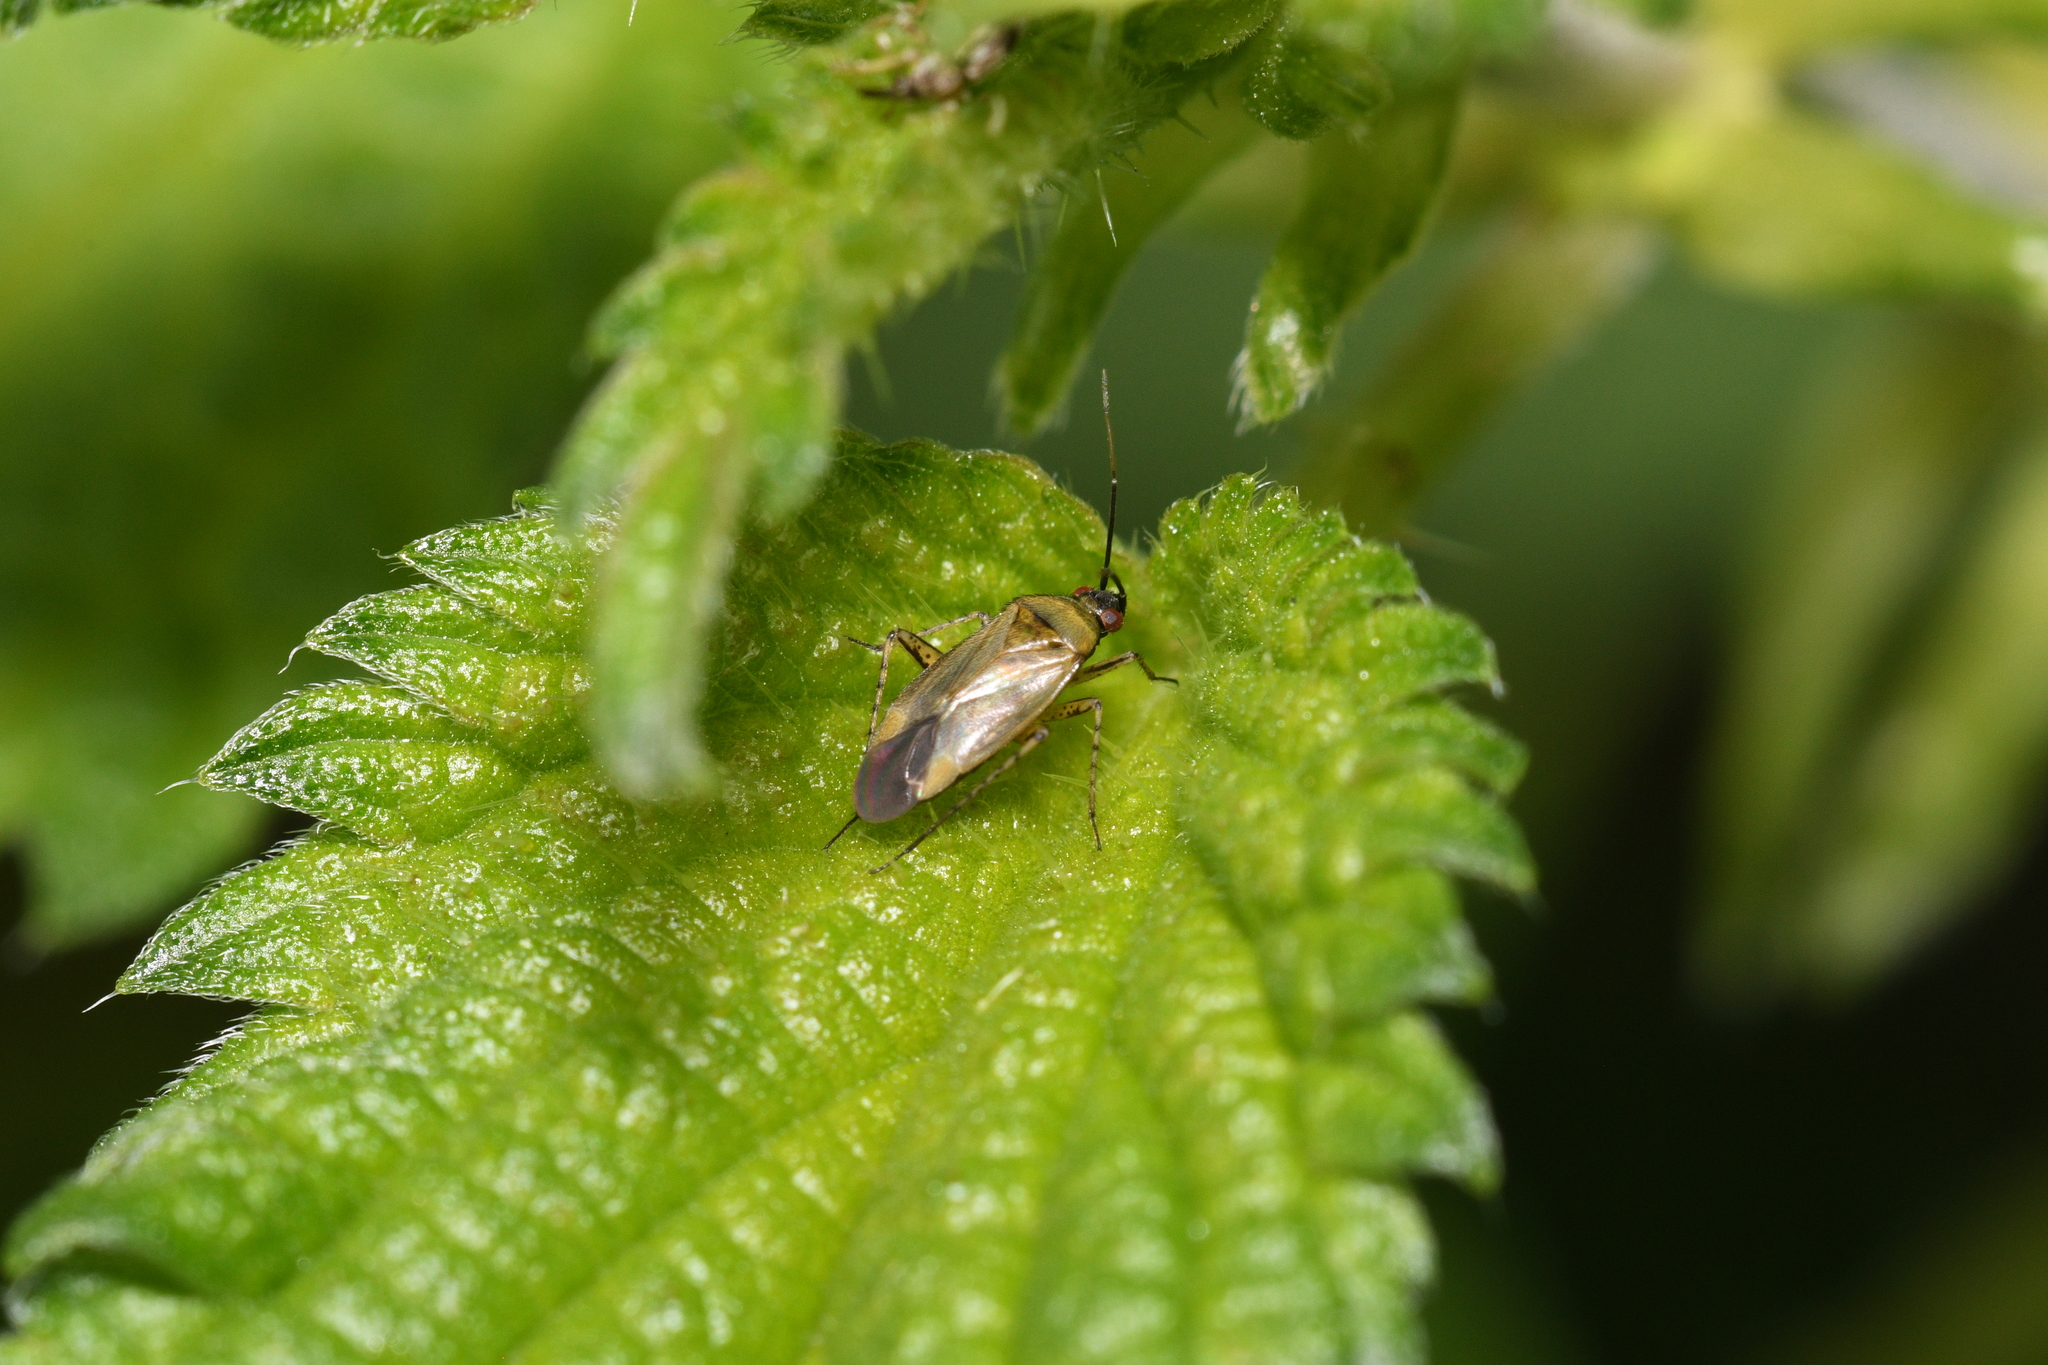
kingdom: Animalia
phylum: Arthropoda
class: Insecta
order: Hemiptera
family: Miridae
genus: Plagiognathus
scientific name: Plagiognathus arbustorum
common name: Plant bug
